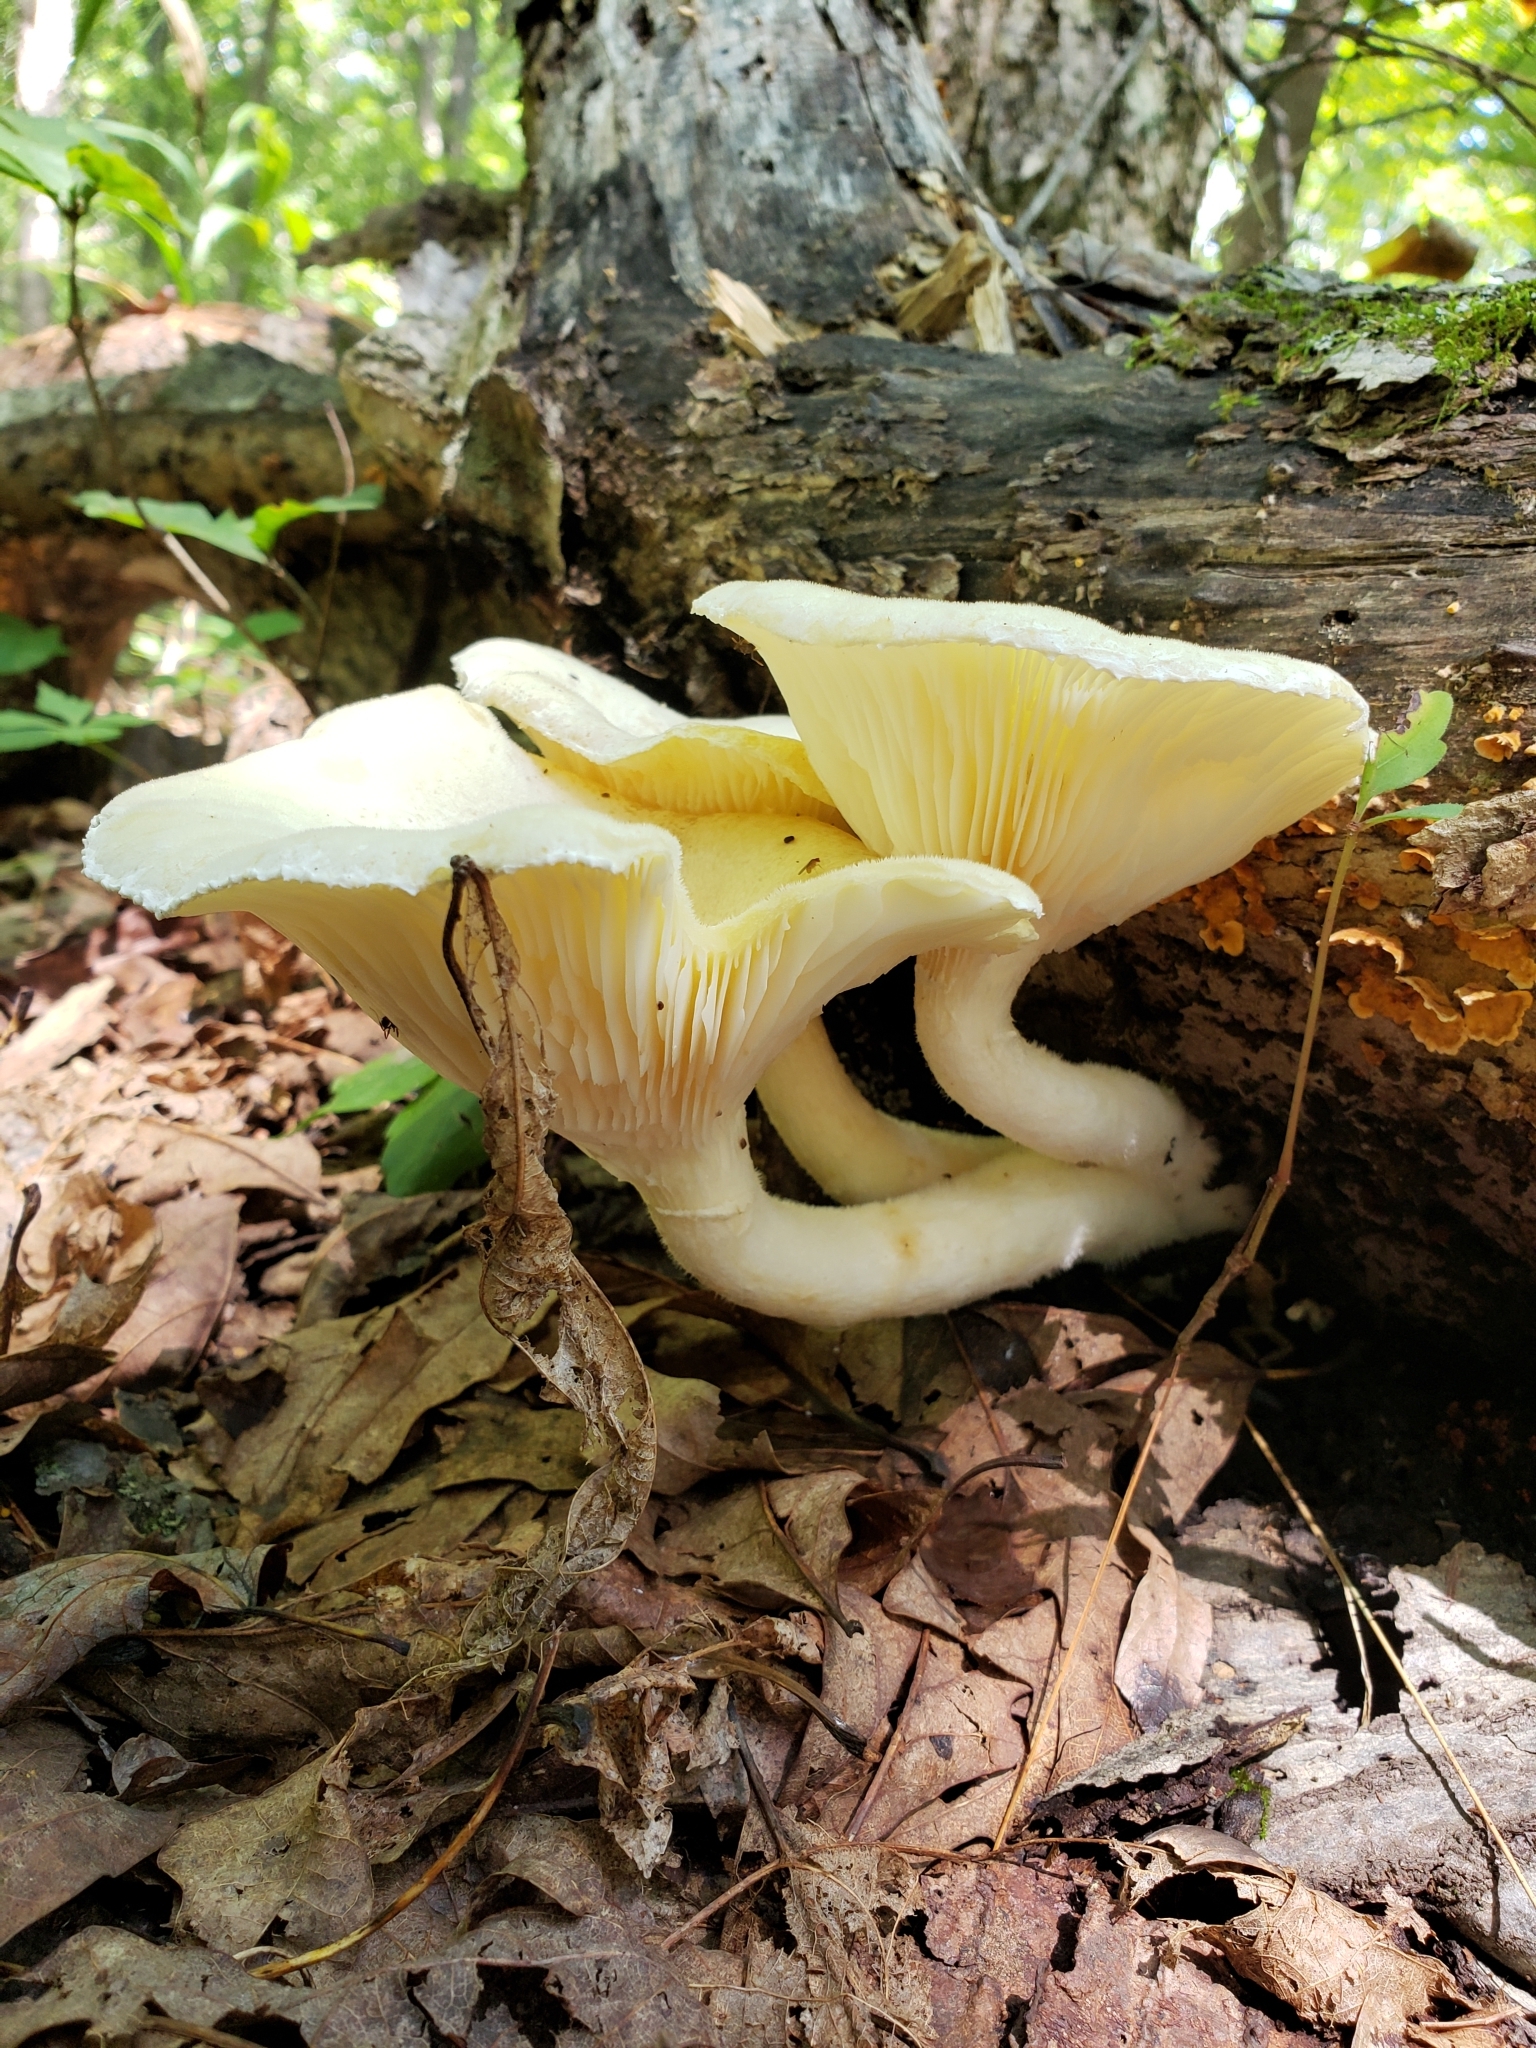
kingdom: Fungi
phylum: Basidiomycota
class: Agaricomycetes
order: Polyporales
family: Polyporaceae
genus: Lentinus
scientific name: Lentinus levis
